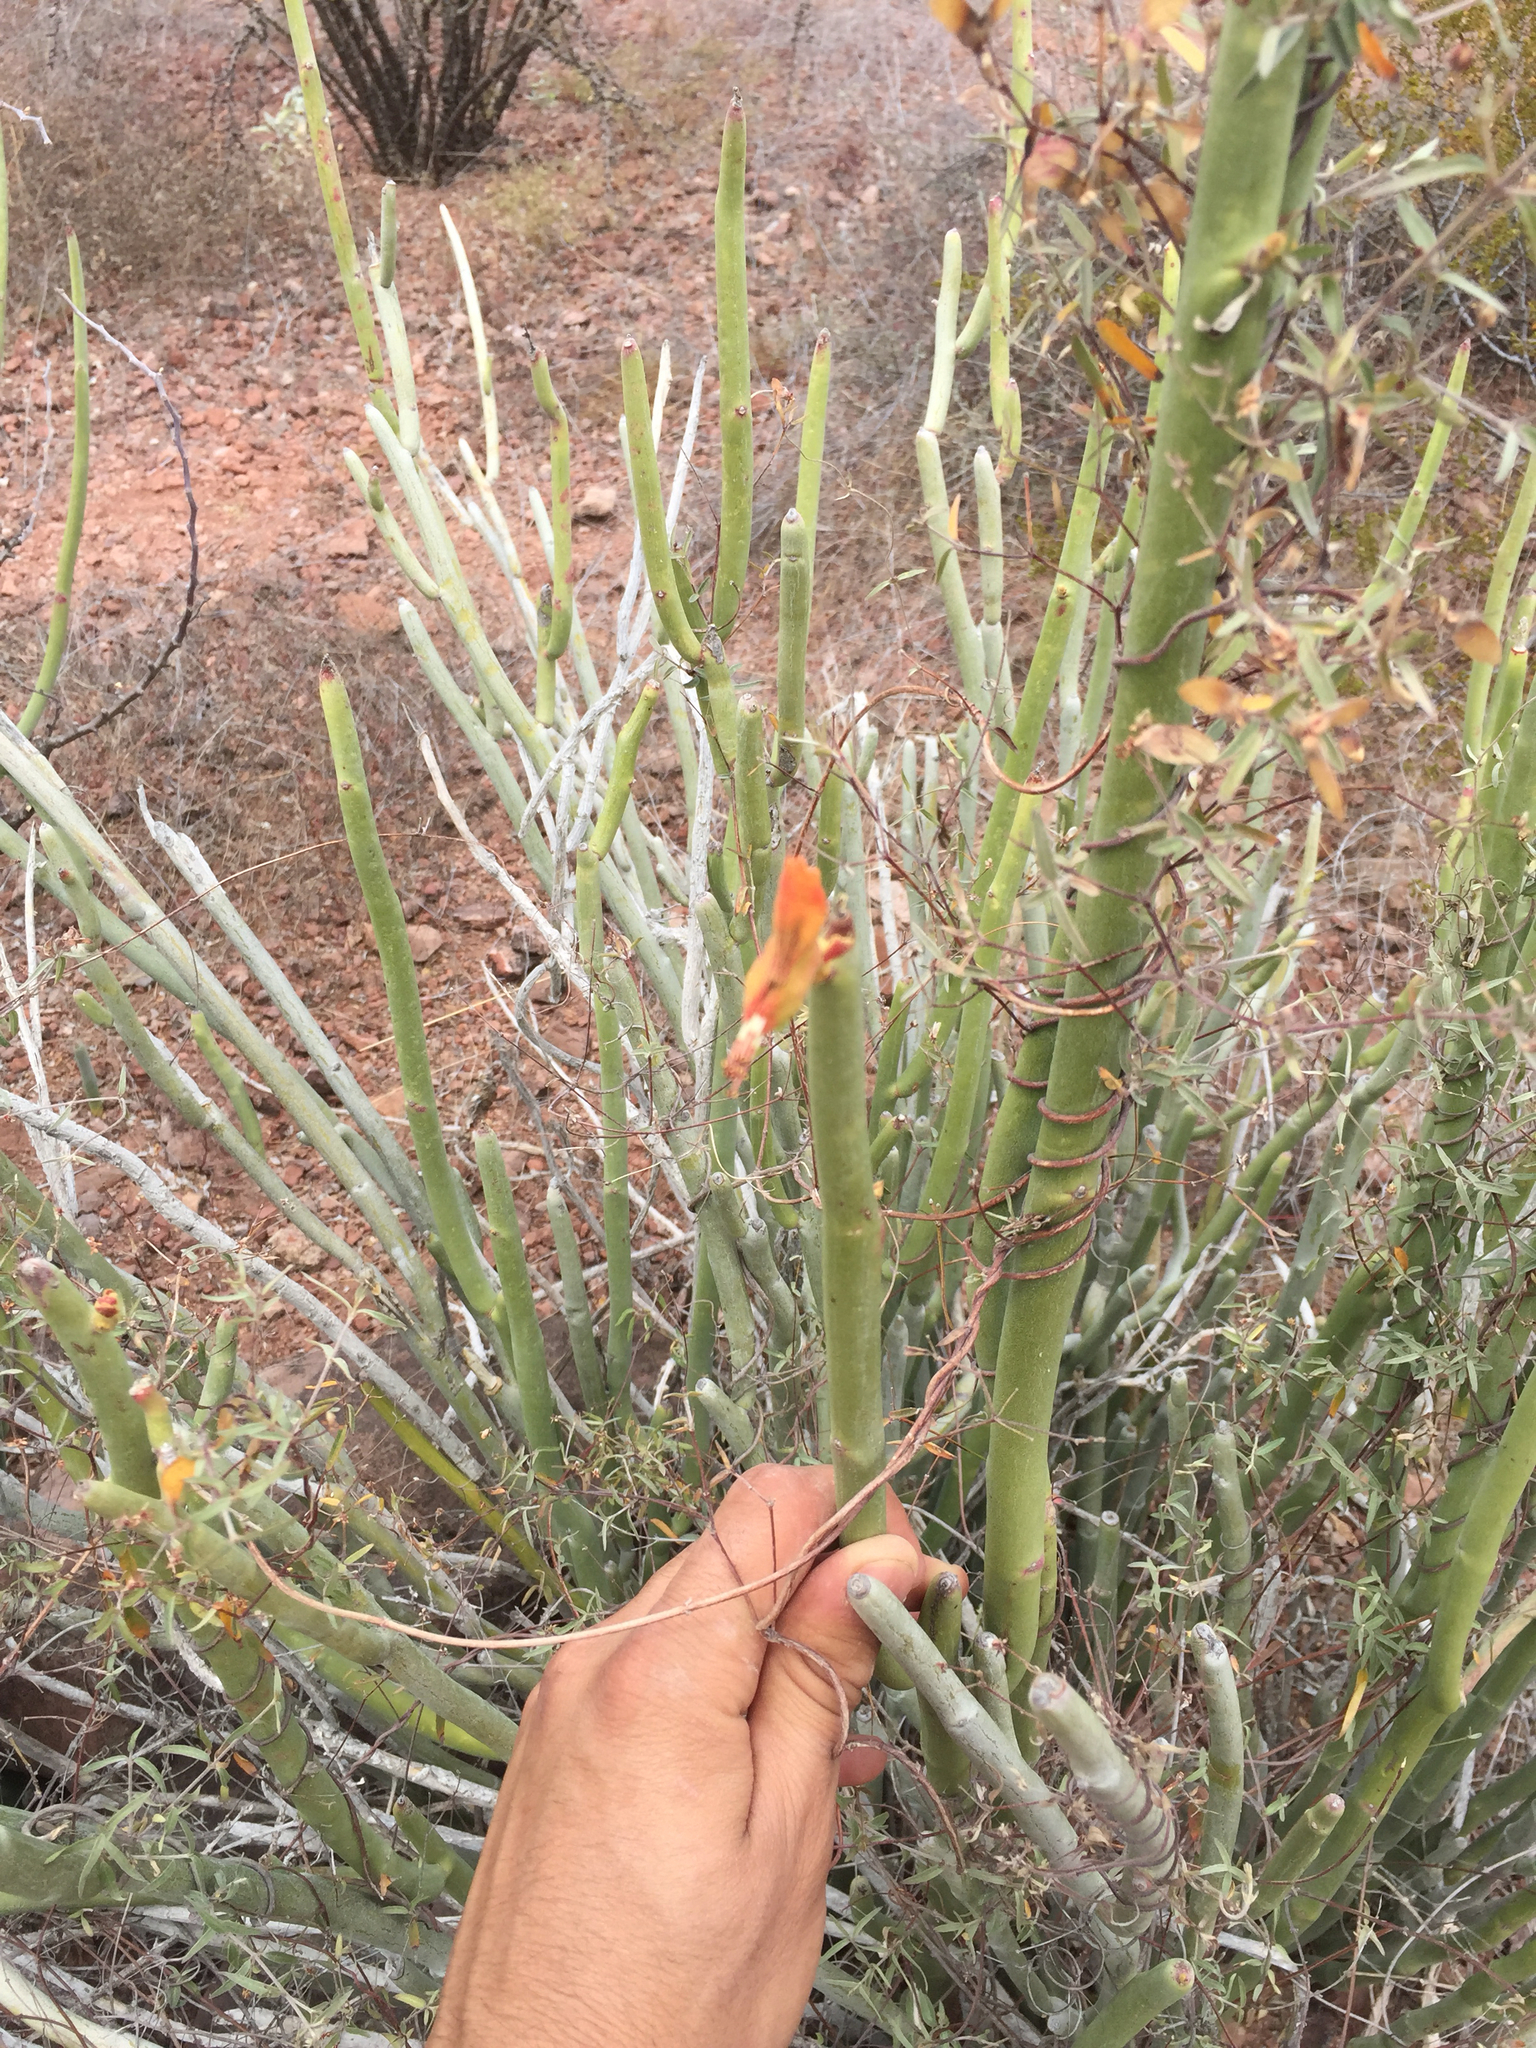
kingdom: Plantae
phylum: Tracheophyta
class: Magnoliopsida
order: Malpighiales
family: Euphorbiaceae
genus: Euphorbia
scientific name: Euphorbia lomelii
